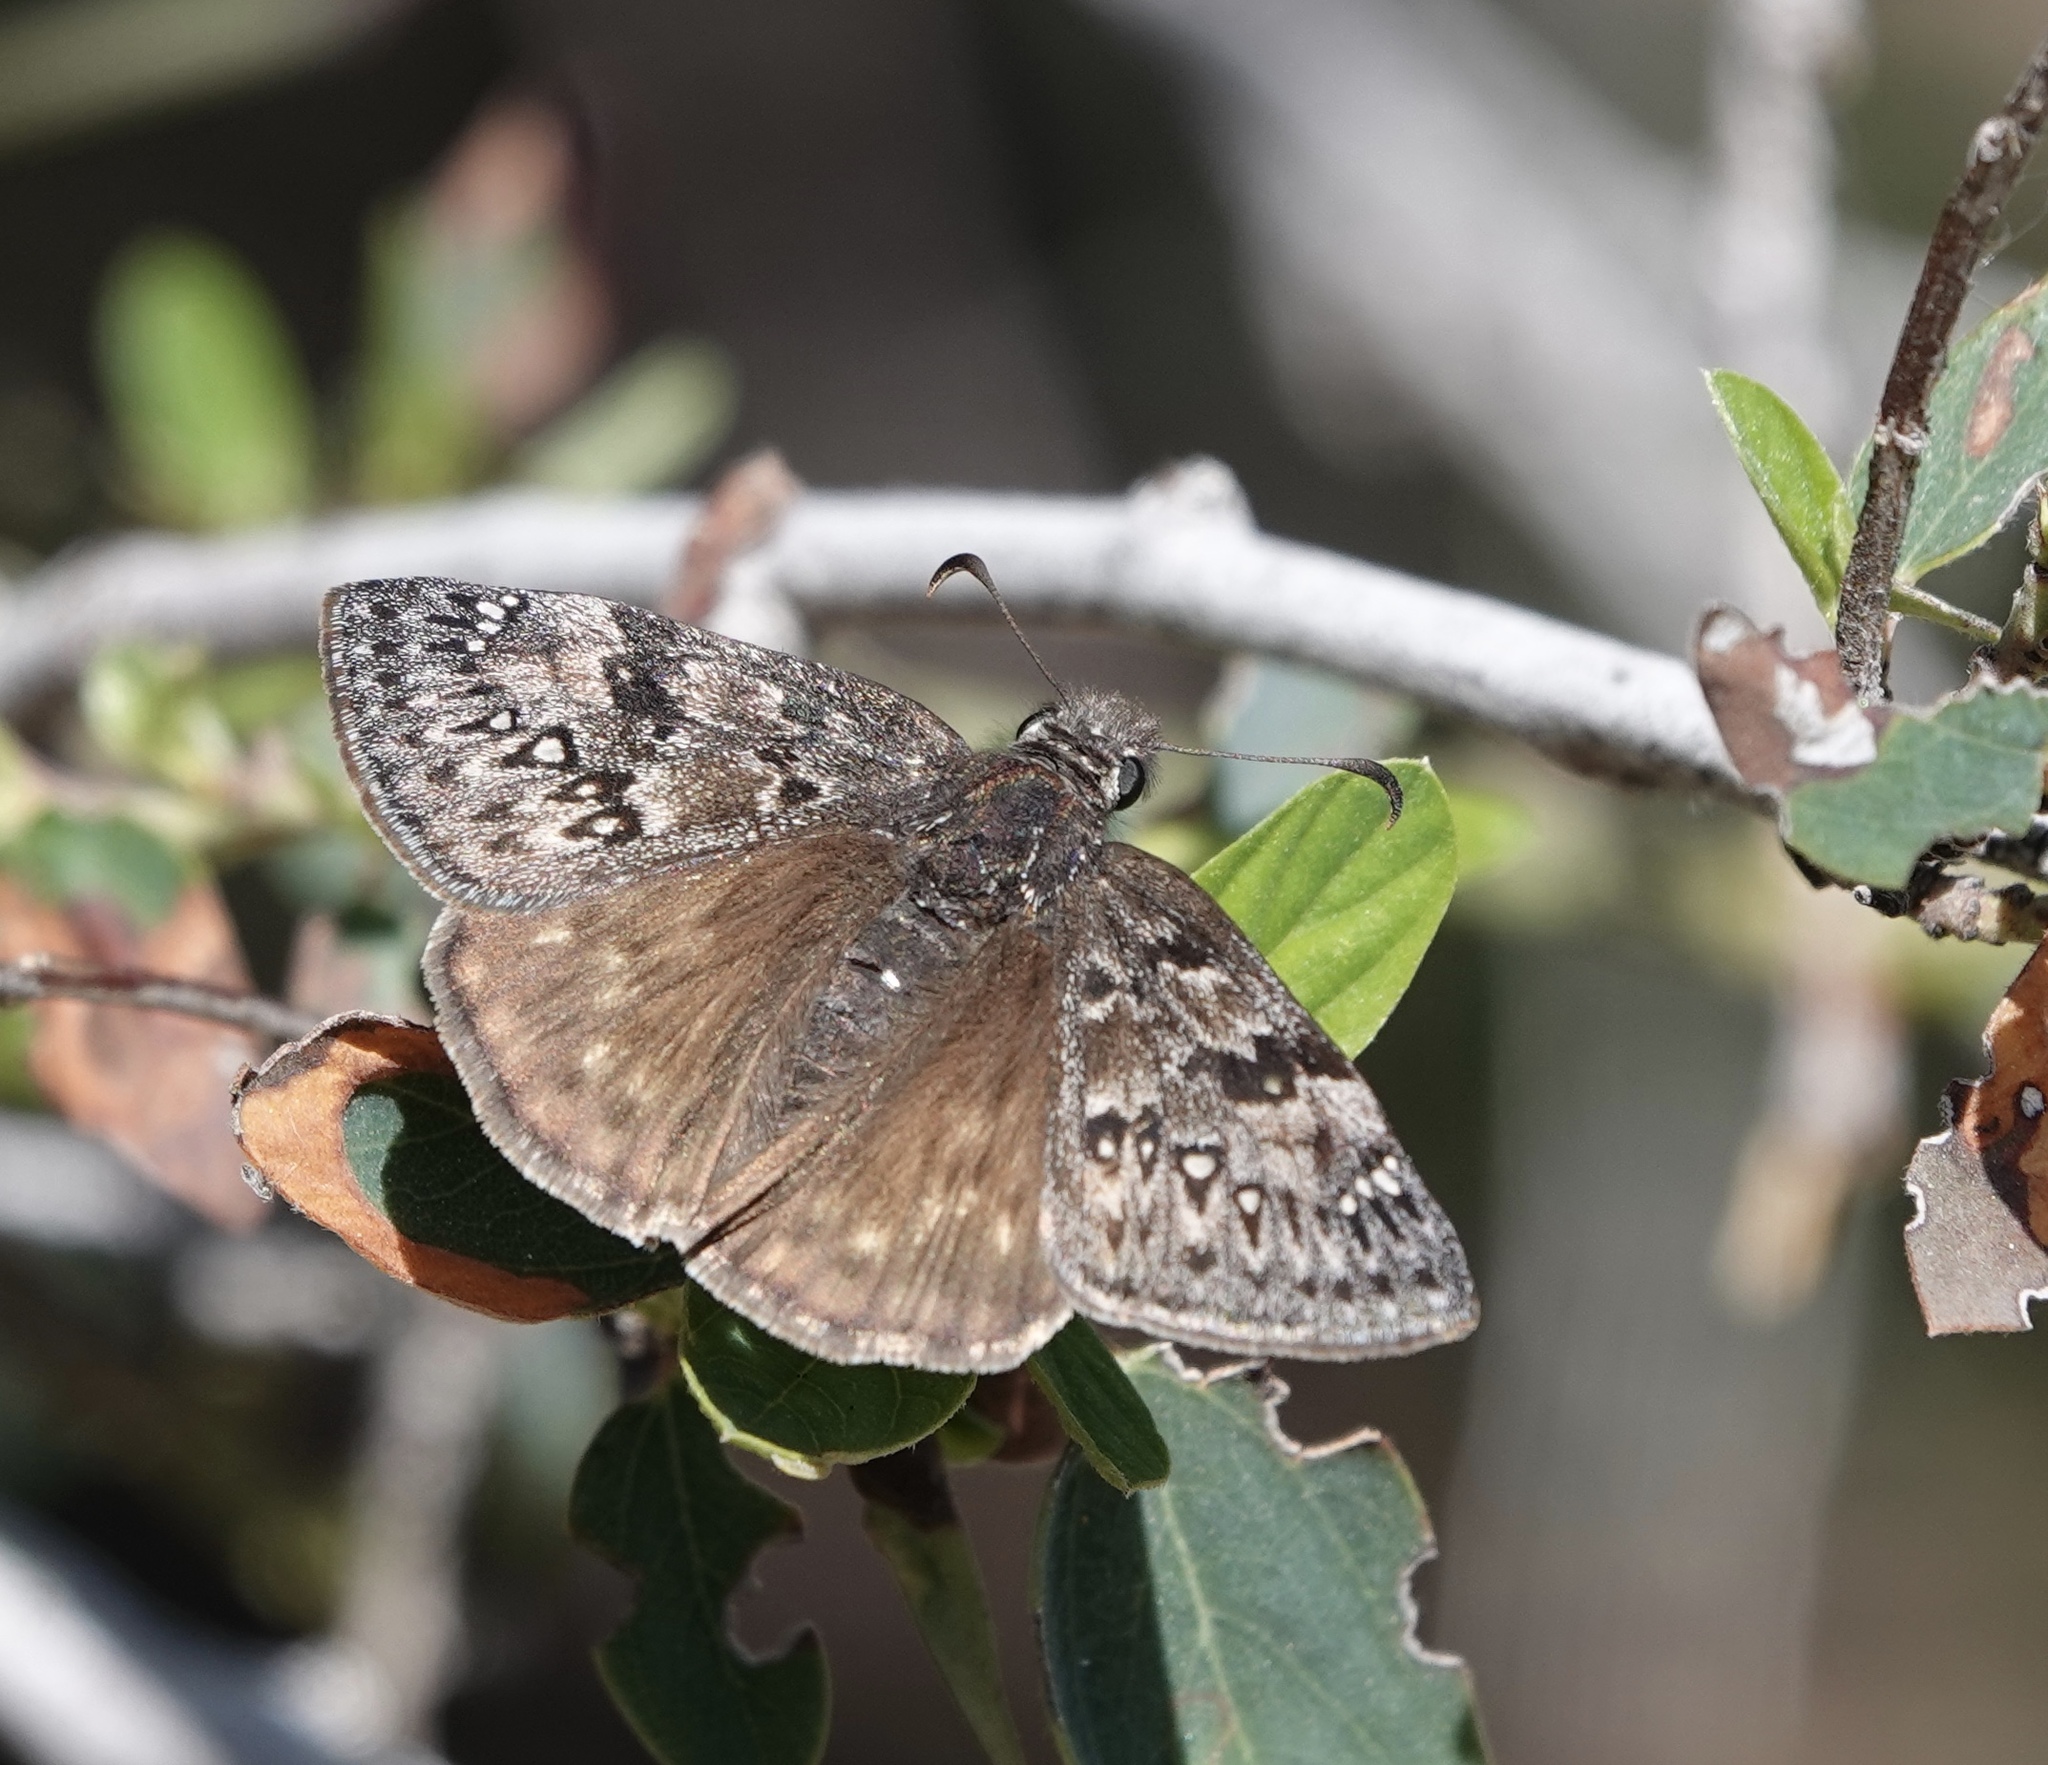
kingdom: Animalia
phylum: Arthropoda
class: Insecta
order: Lepidoptera
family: Hesperiidae
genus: Erynnis
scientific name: Erynnis propertius
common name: Propertius duskywing
